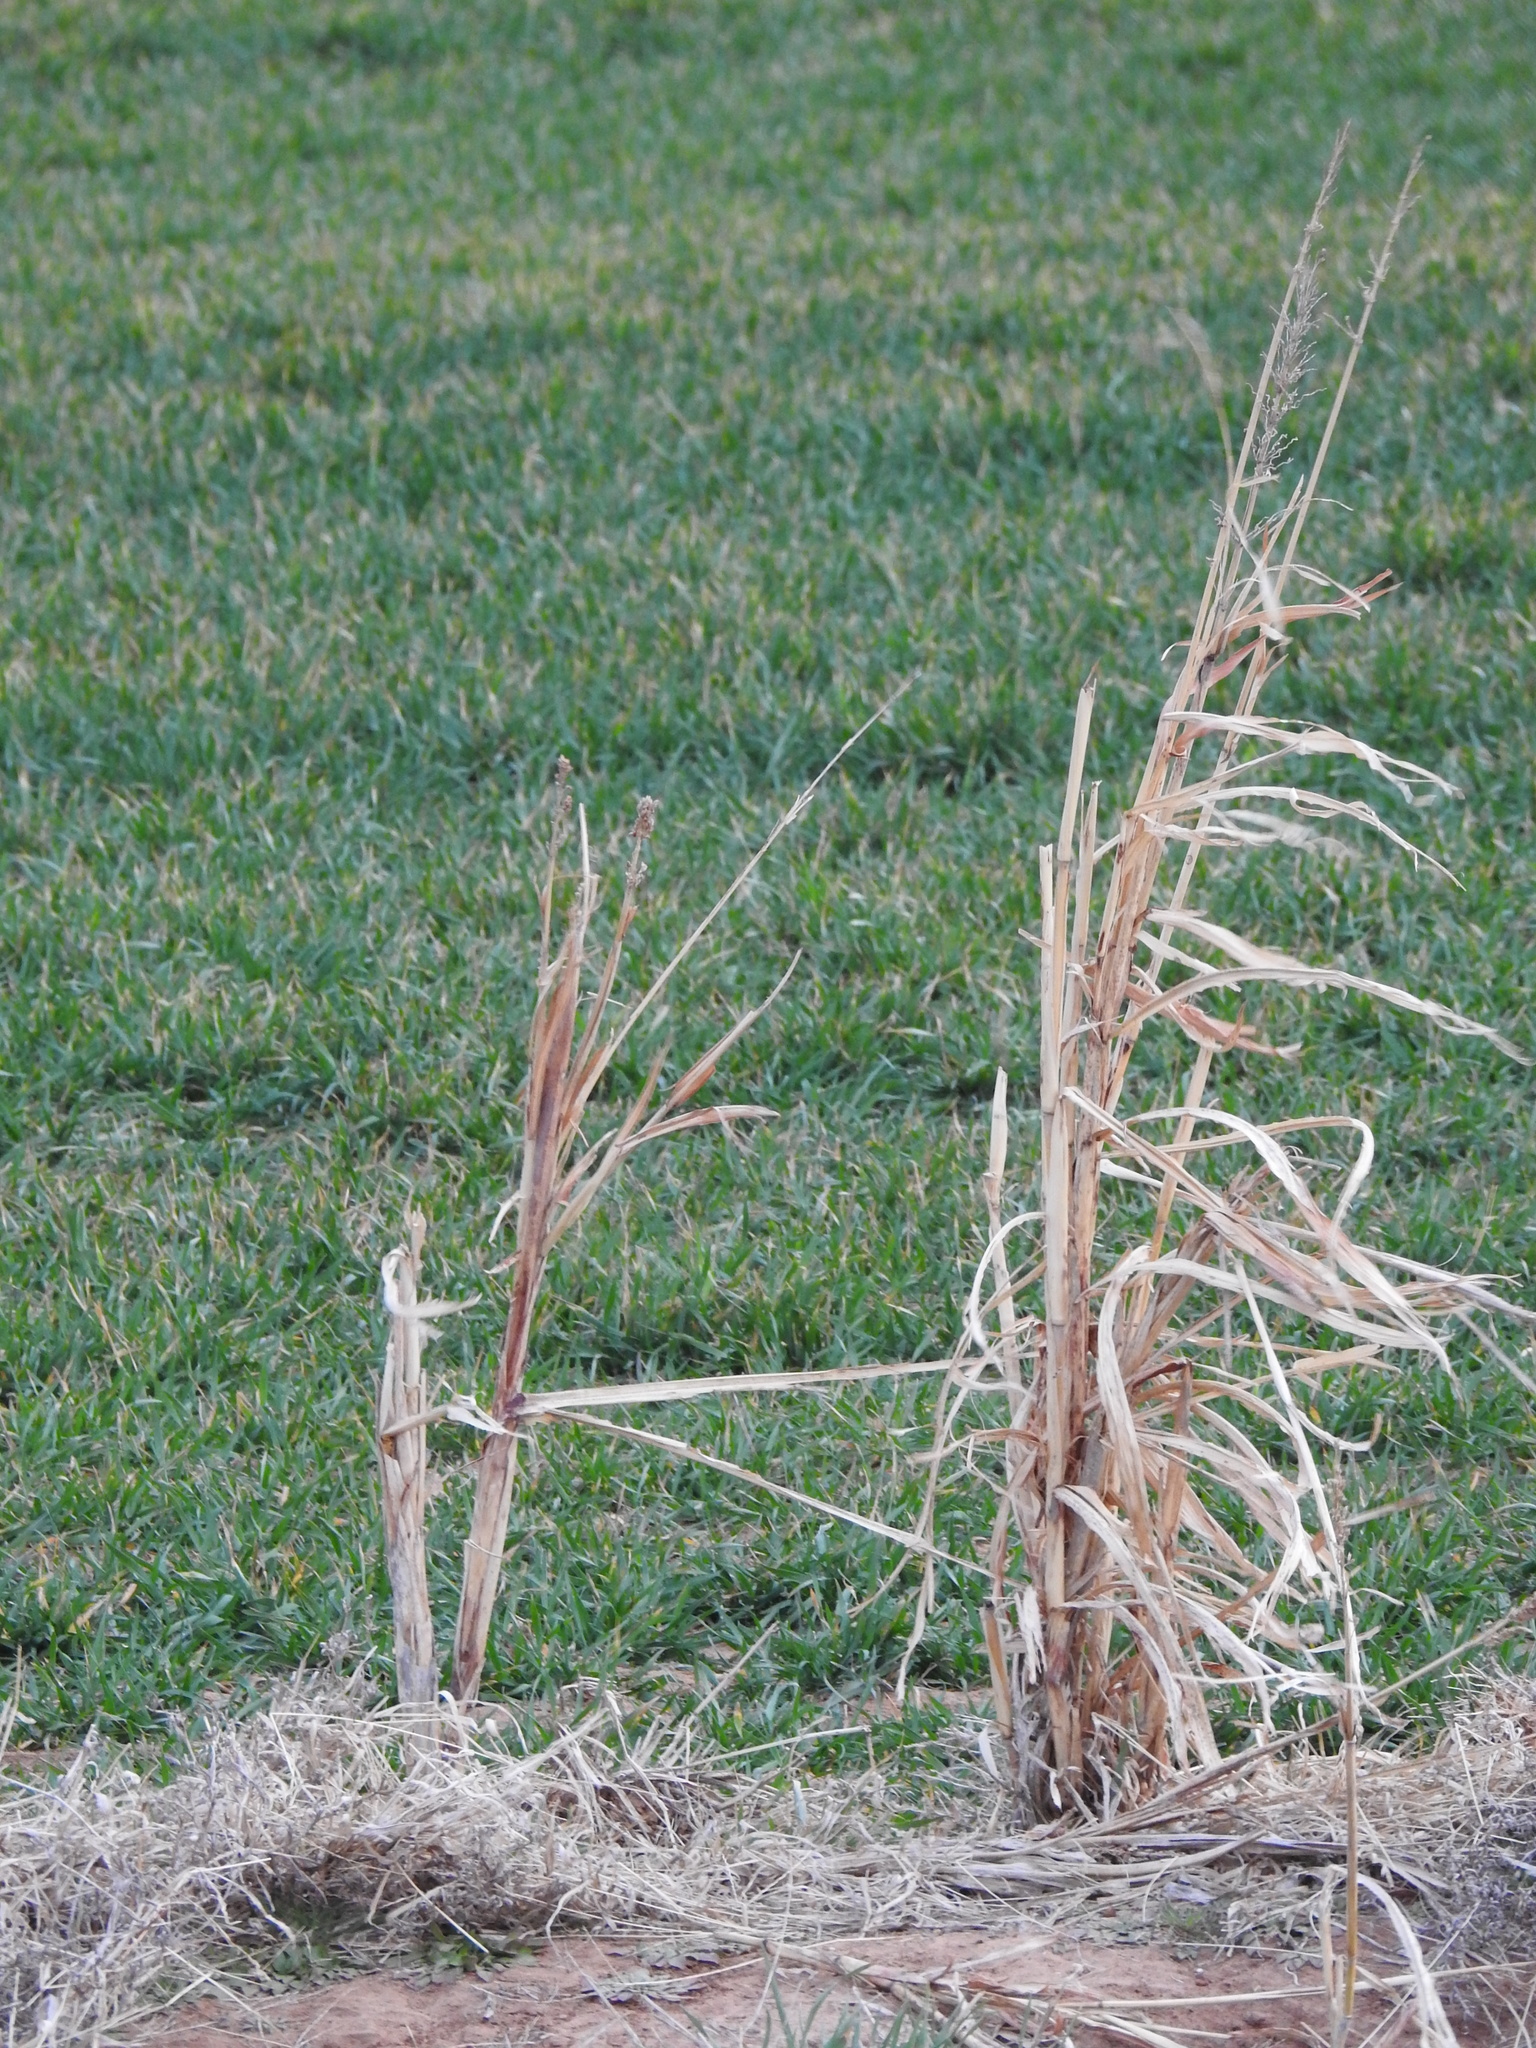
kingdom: Plantae
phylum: Tracheophyta
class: Liliopsida
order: Poales
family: Poaceae
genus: Sorghum
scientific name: Sorghum halepense
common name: Johnson-grass
